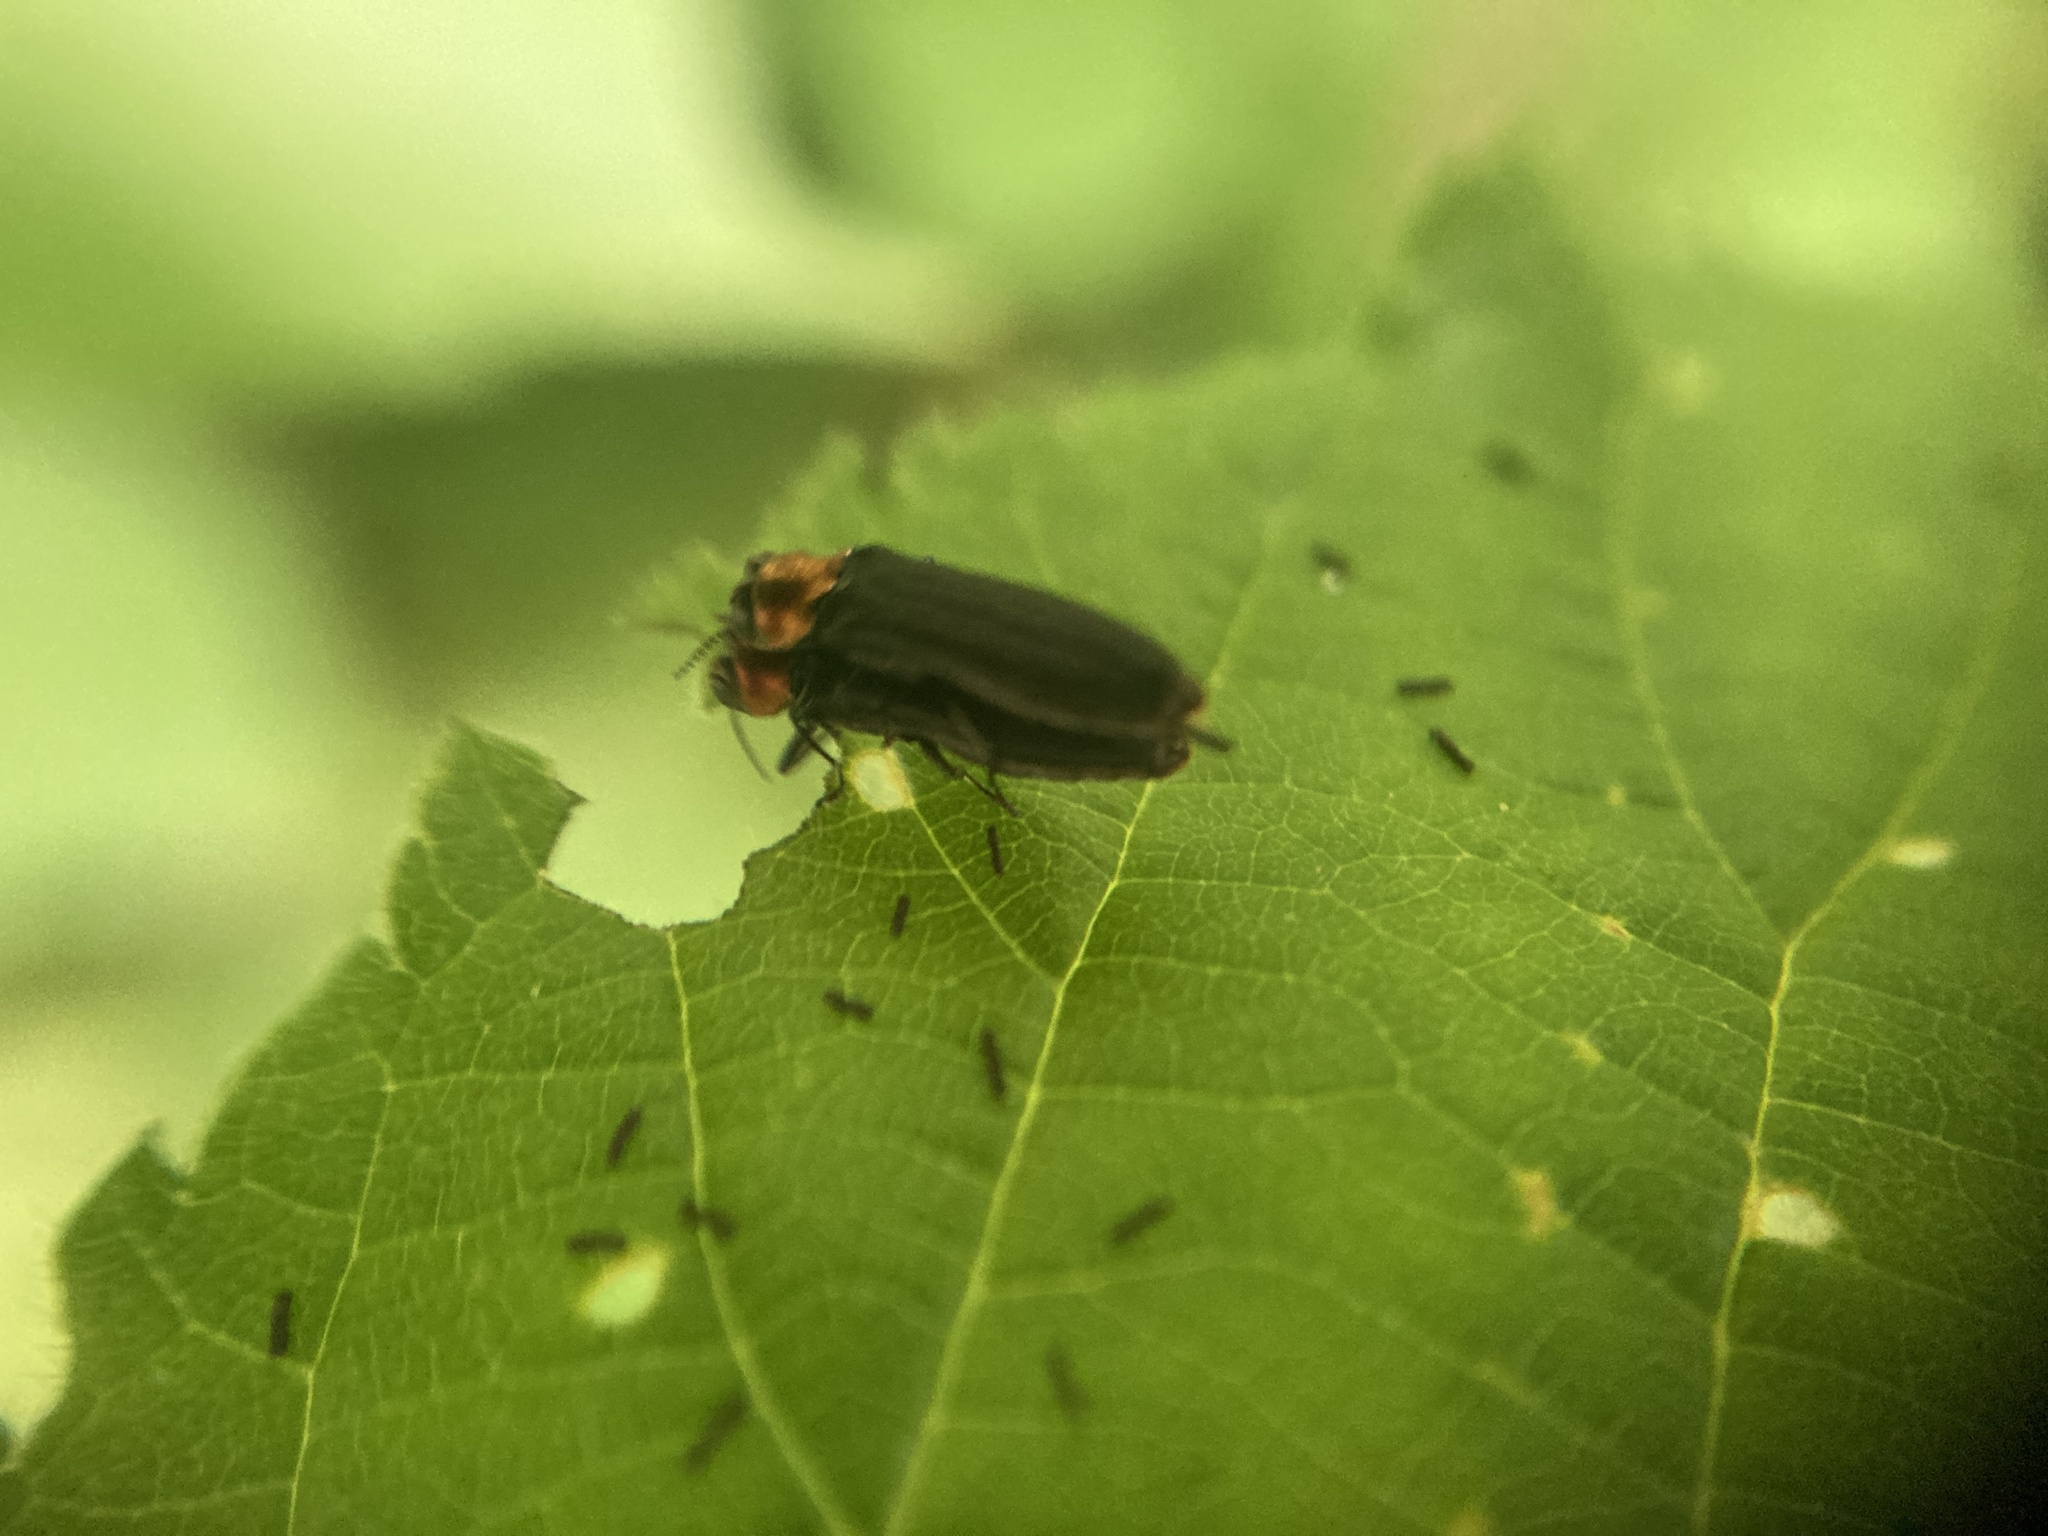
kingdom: Animalia
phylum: Arthropoda
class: Insecta
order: Coleoptera
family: Buprestidae
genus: Agrilus
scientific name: Agrilus ruficollis
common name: Red-necked cane borer beetle
